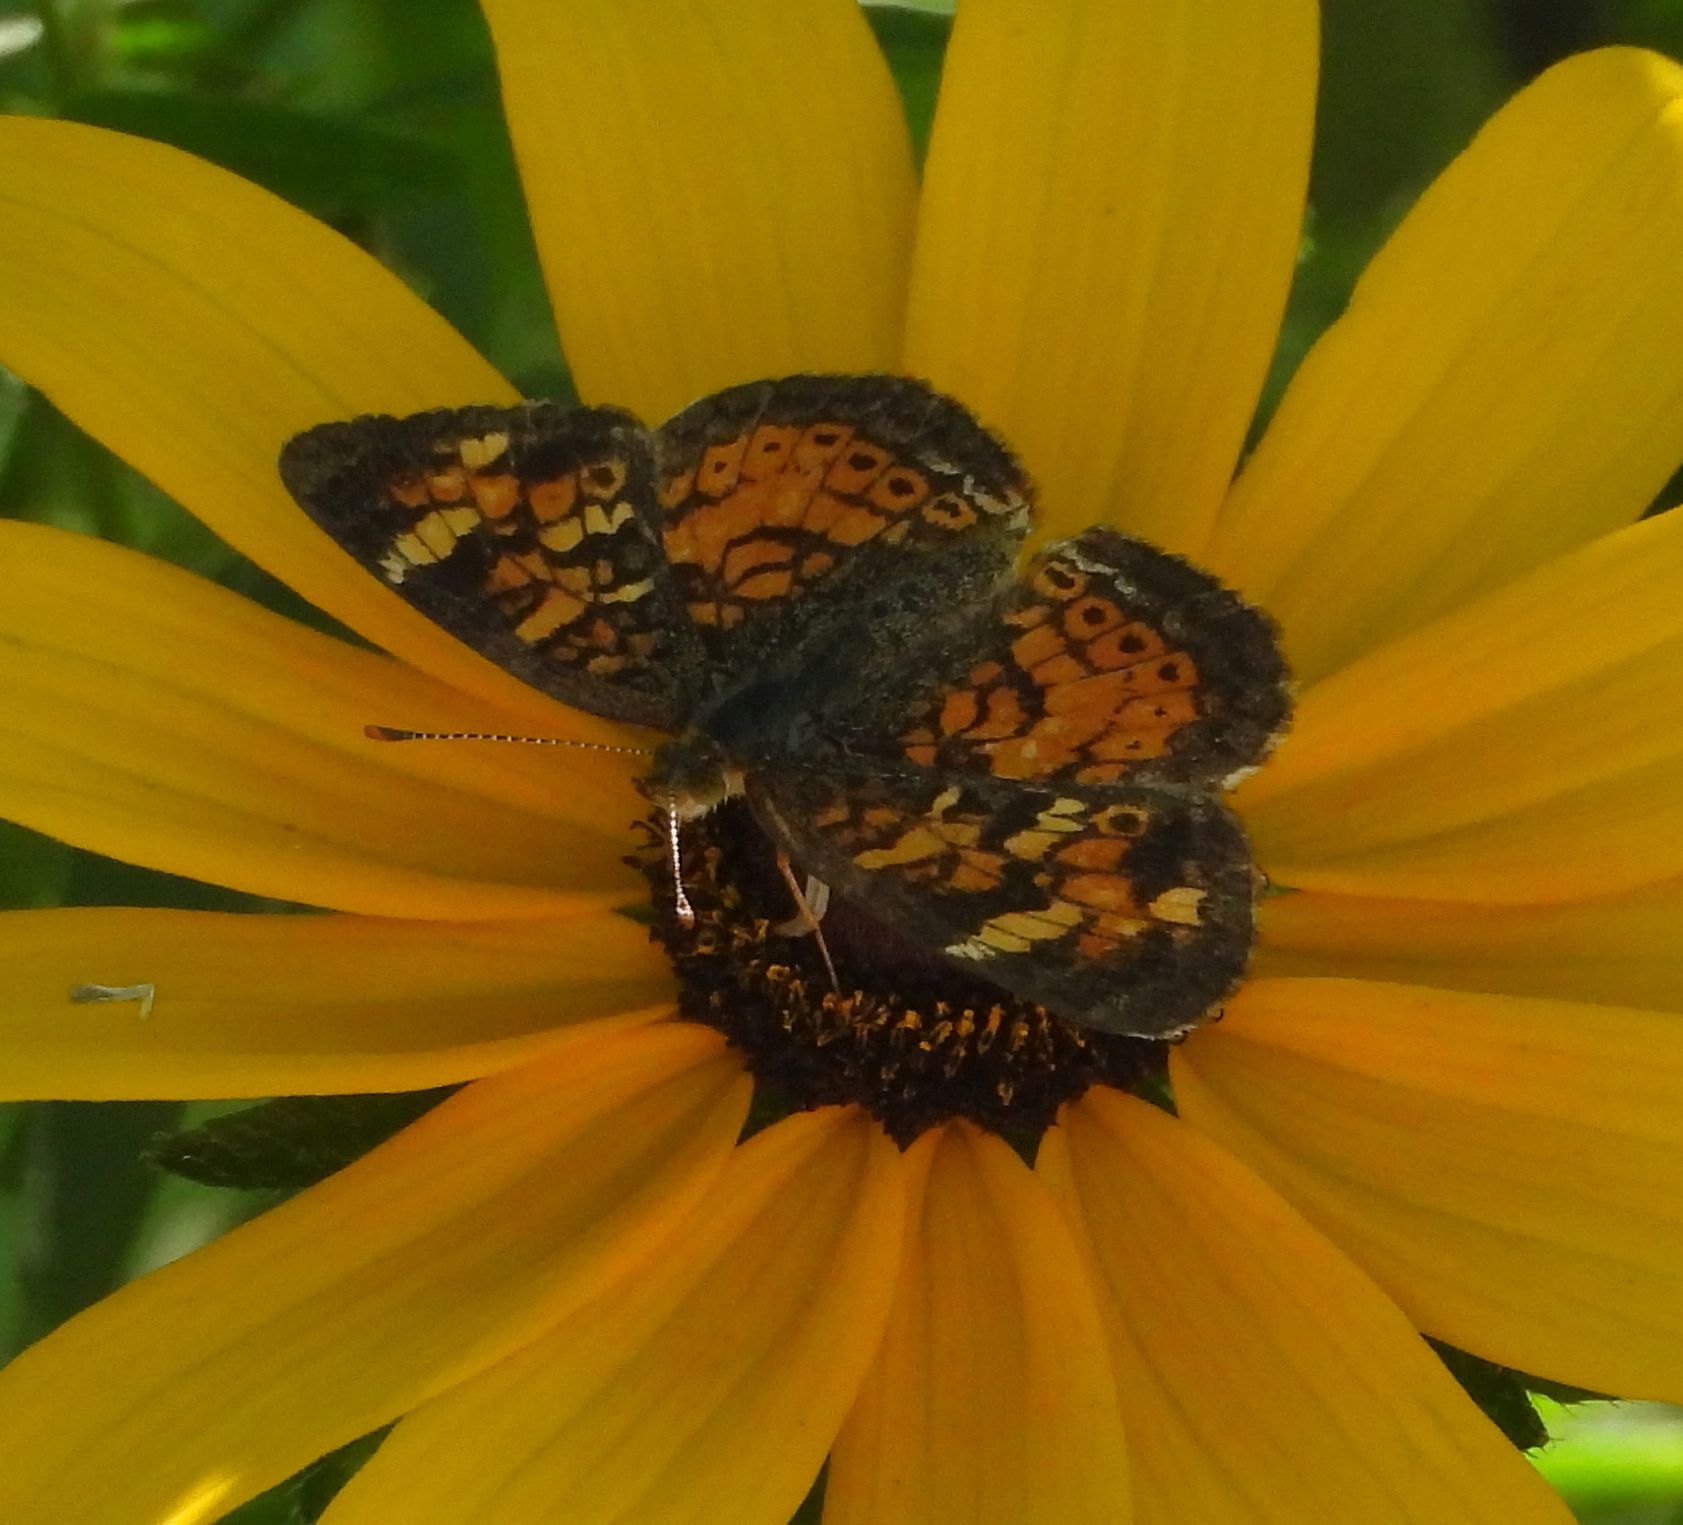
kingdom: Animalia
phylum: Arthropoda
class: Insecta
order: Lepidoptera
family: Nymphalidae
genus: Phyciodes
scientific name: Phyciodes tharos
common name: Pearl crescent
